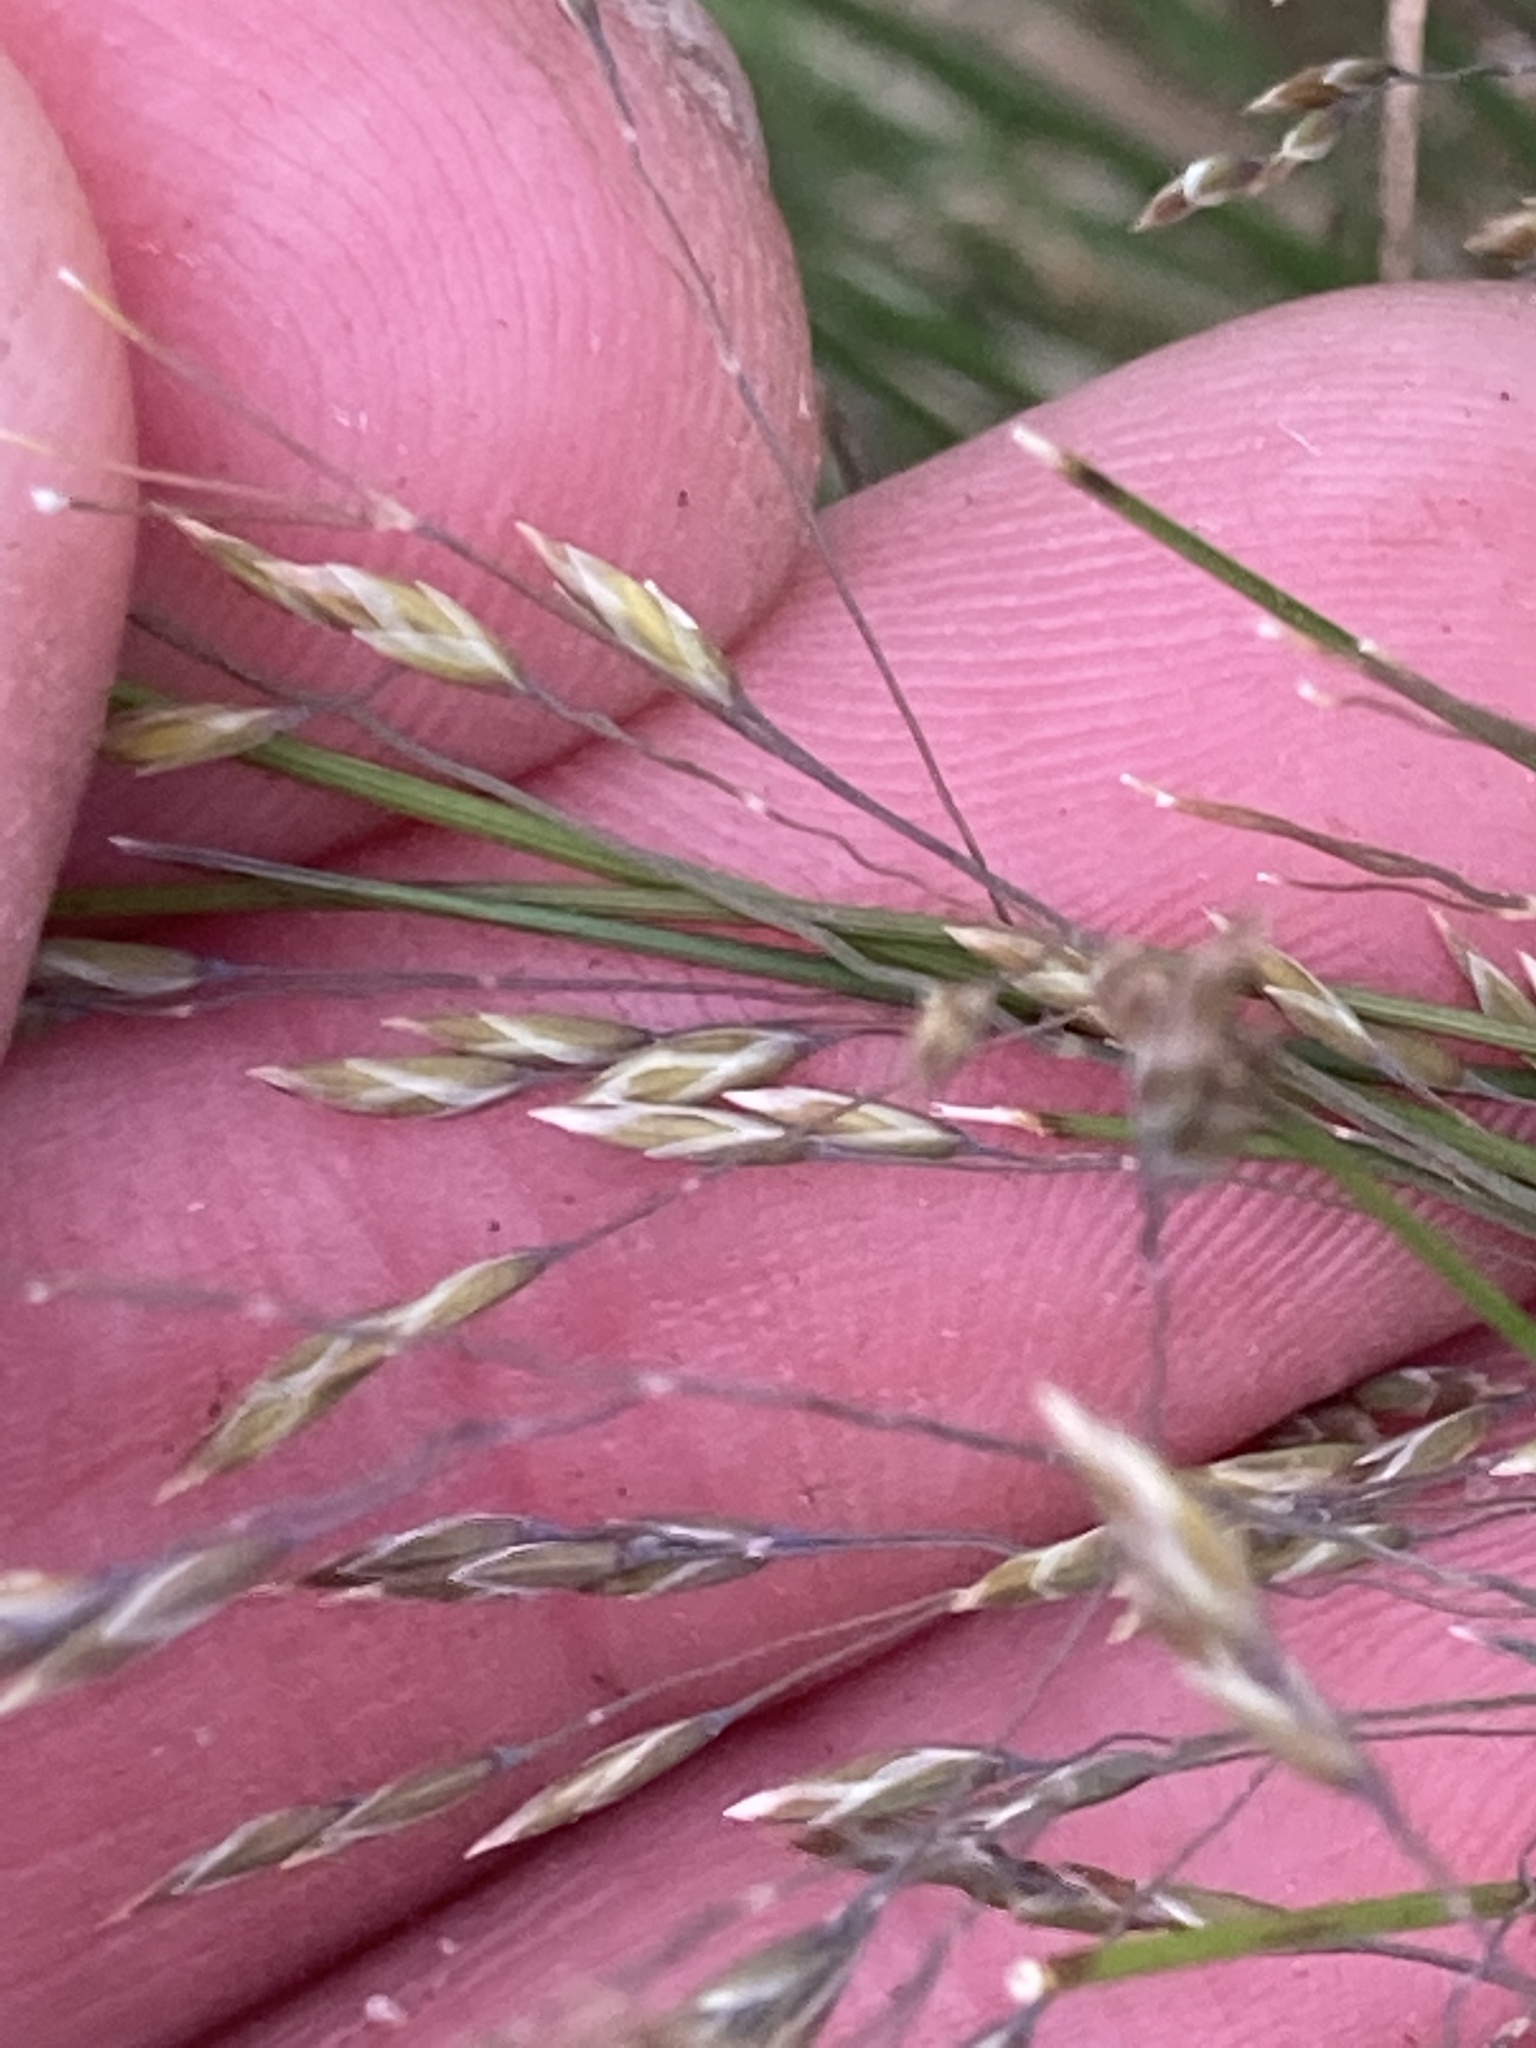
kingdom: Plantae
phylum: Tracheophyta
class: Liliopsida
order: Poales
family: Poaceae
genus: Poa
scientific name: Poa colensoi
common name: Blue tussock
